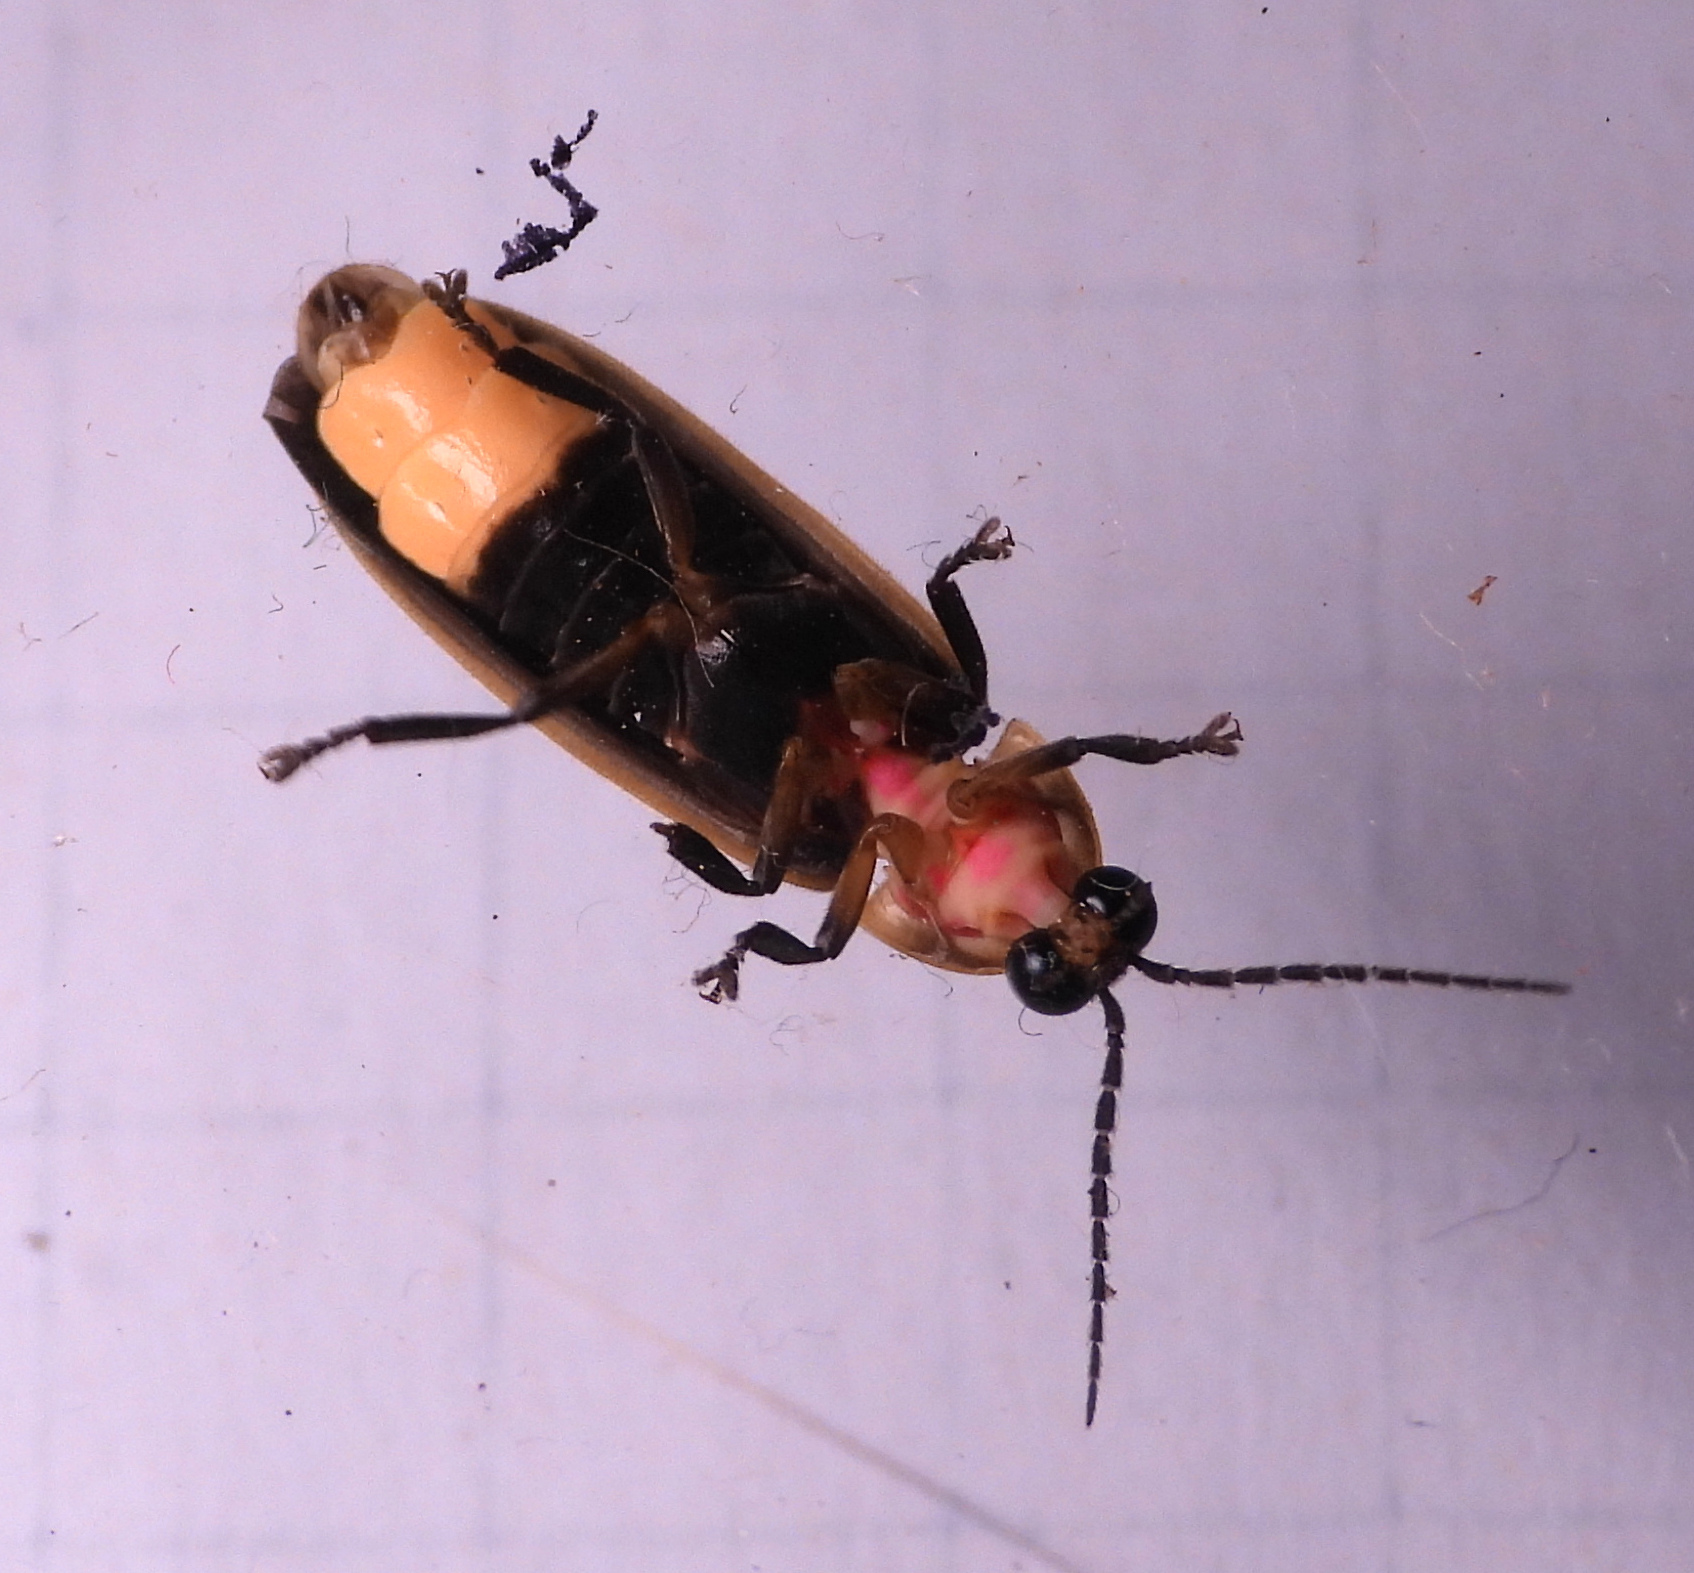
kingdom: Animalia
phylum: Arthropoda
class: Insecta
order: Coleoptera
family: Lampyridae
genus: Photinus
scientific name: Photinus pyralis
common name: Big dipper firefly
